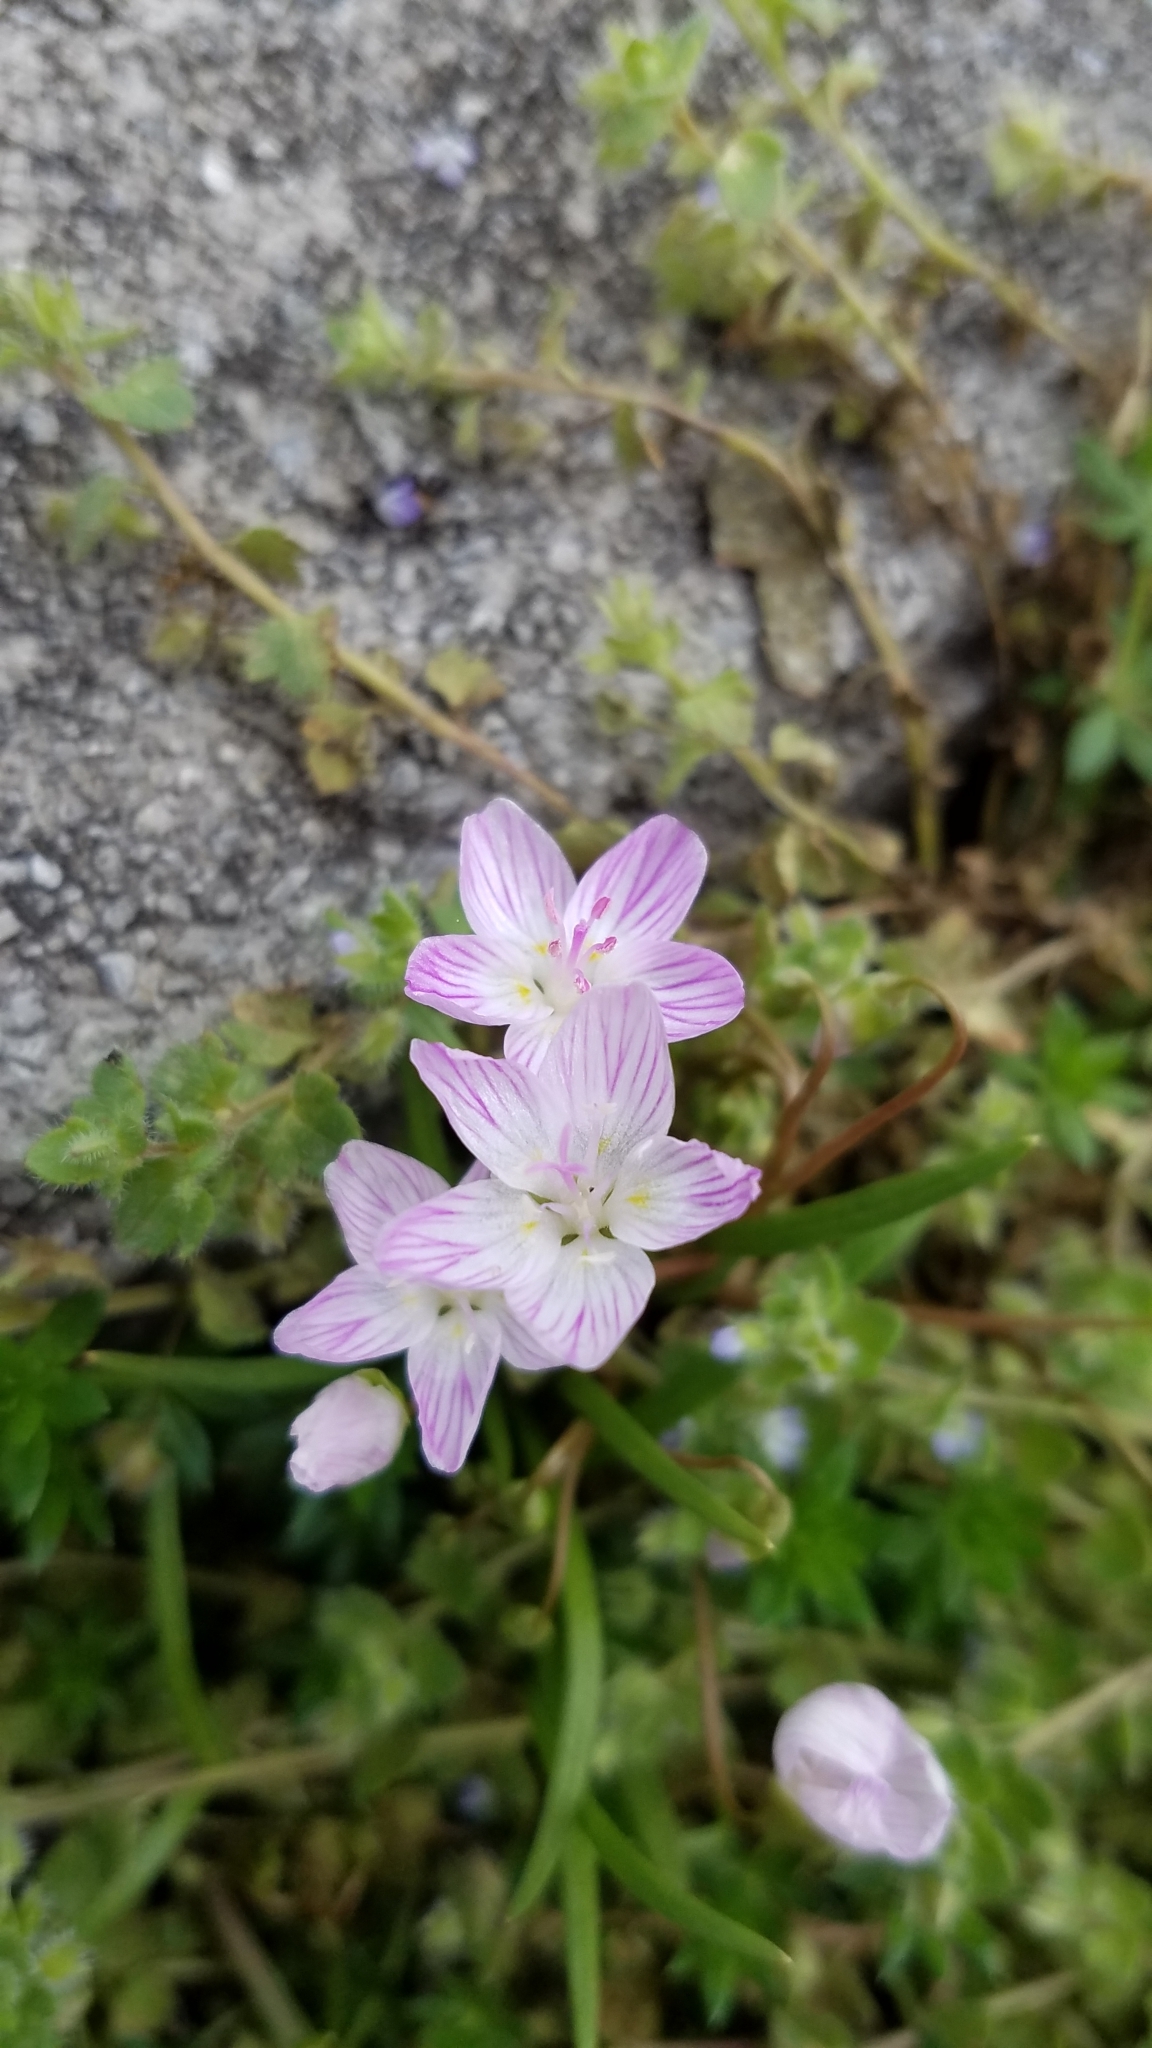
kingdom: Plantae
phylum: Tracheophyta
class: Magnoliopsida
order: Caryophyllales
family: Montiaceae
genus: Claytonia
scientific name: Claytonia virginica
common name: Virginia springbeauty
